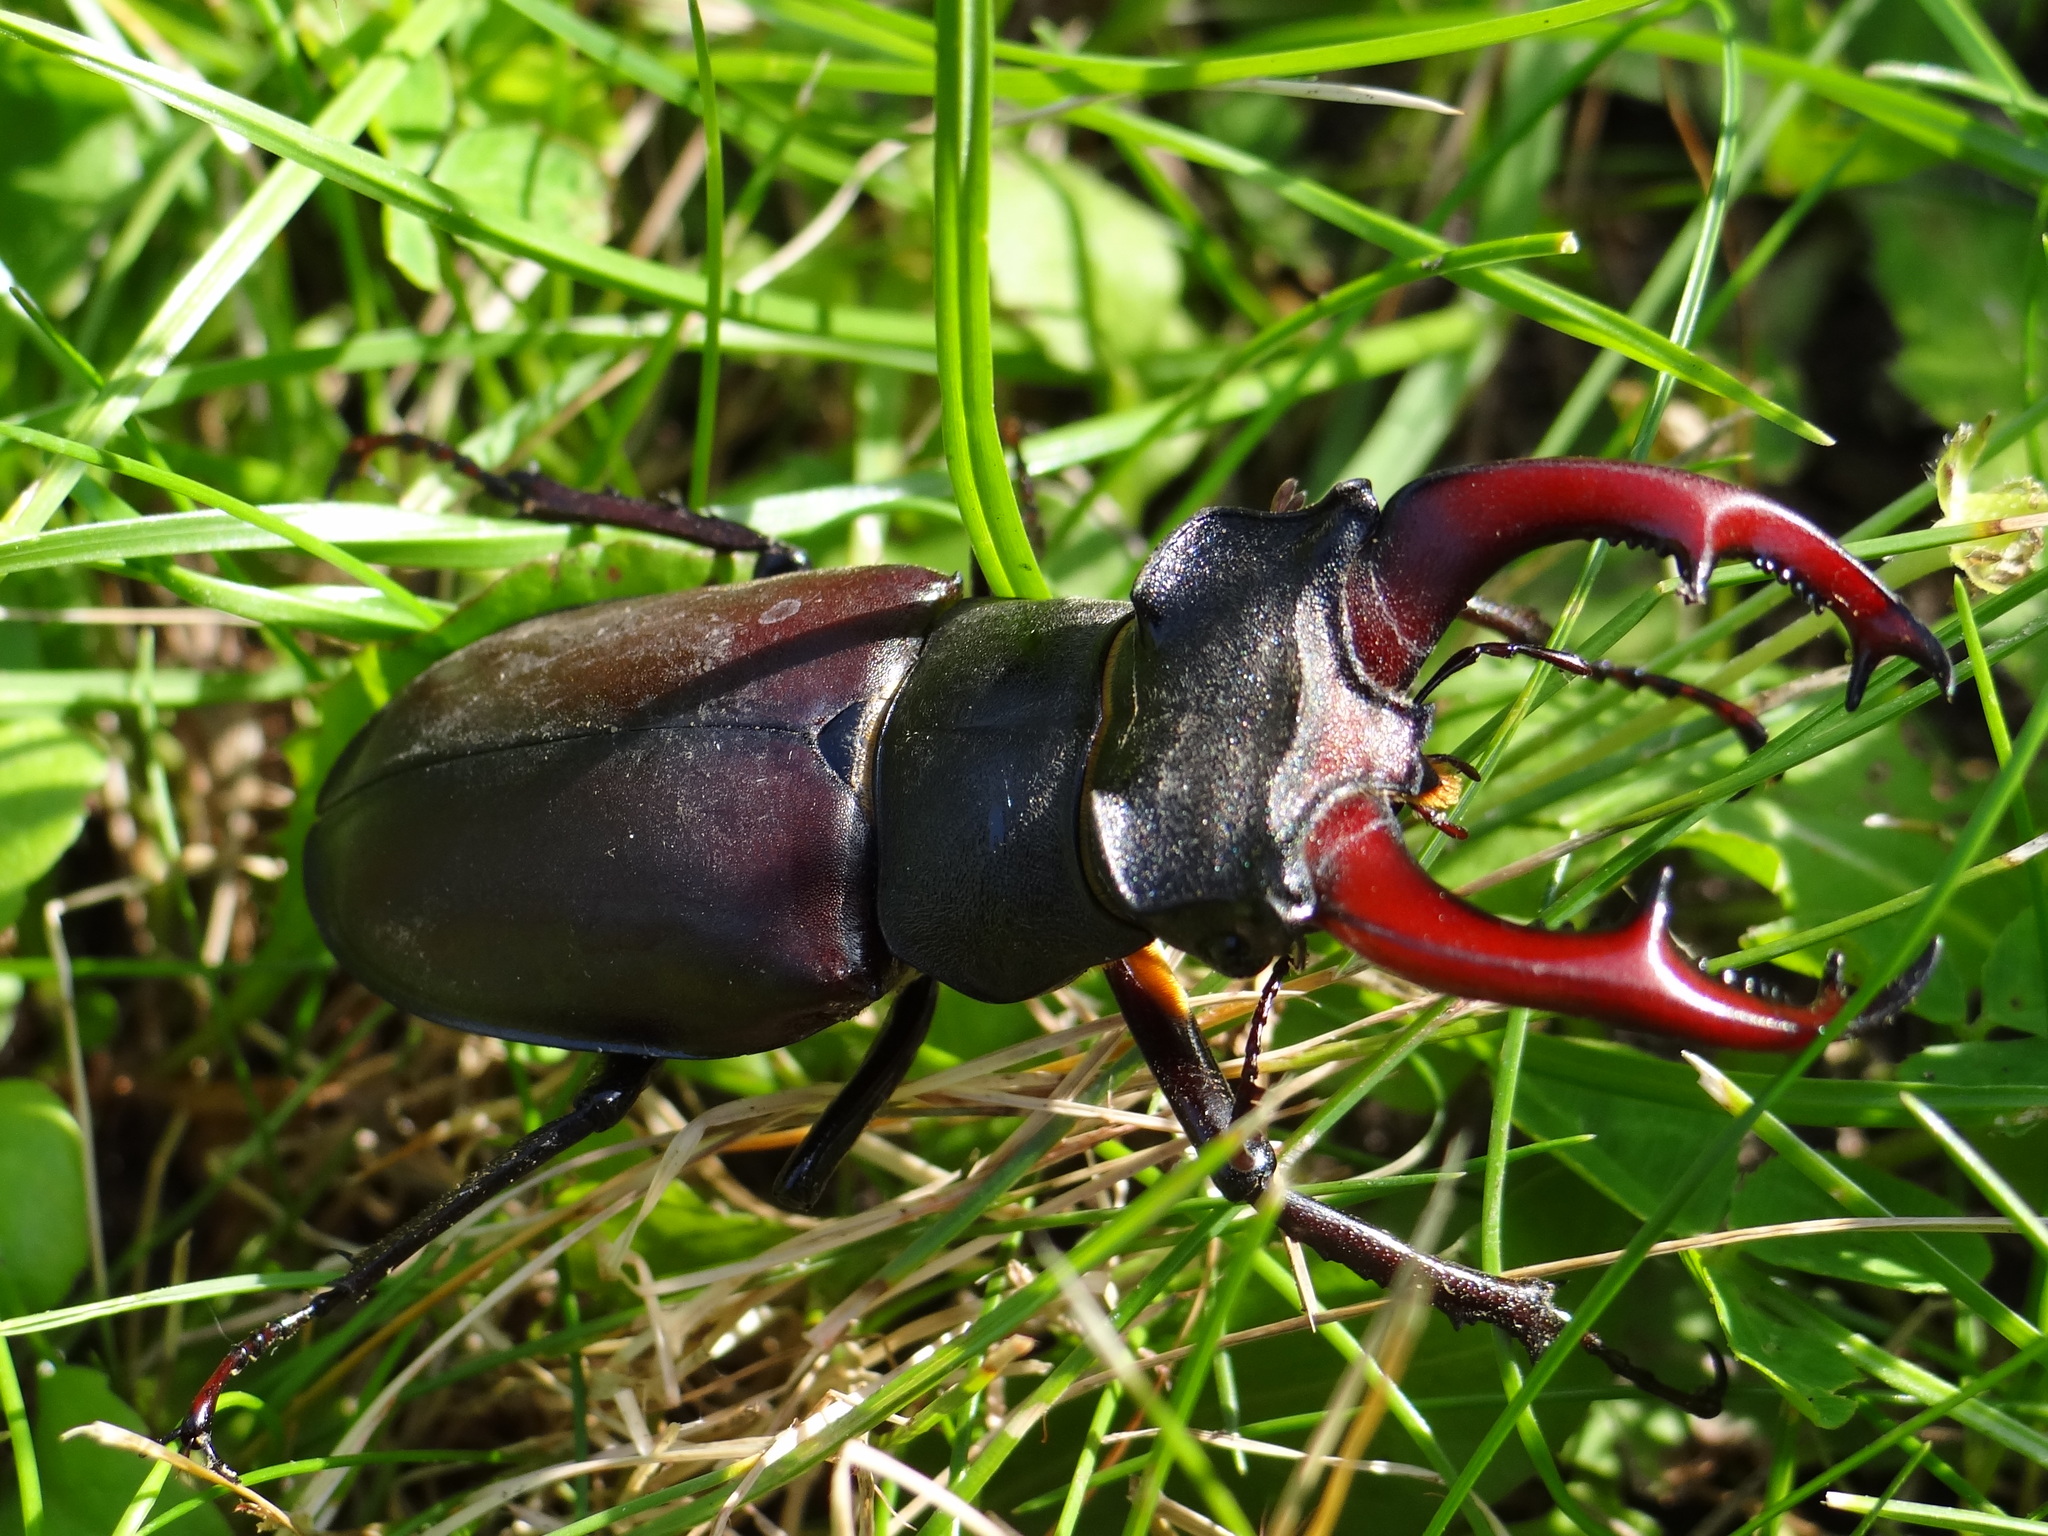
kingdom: Animalia
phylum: Arthropoda
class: Insecta
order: Coleoptera
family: Lucanidae
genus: Lucanus
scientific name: Lucanus cervus
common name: Stag beetle
